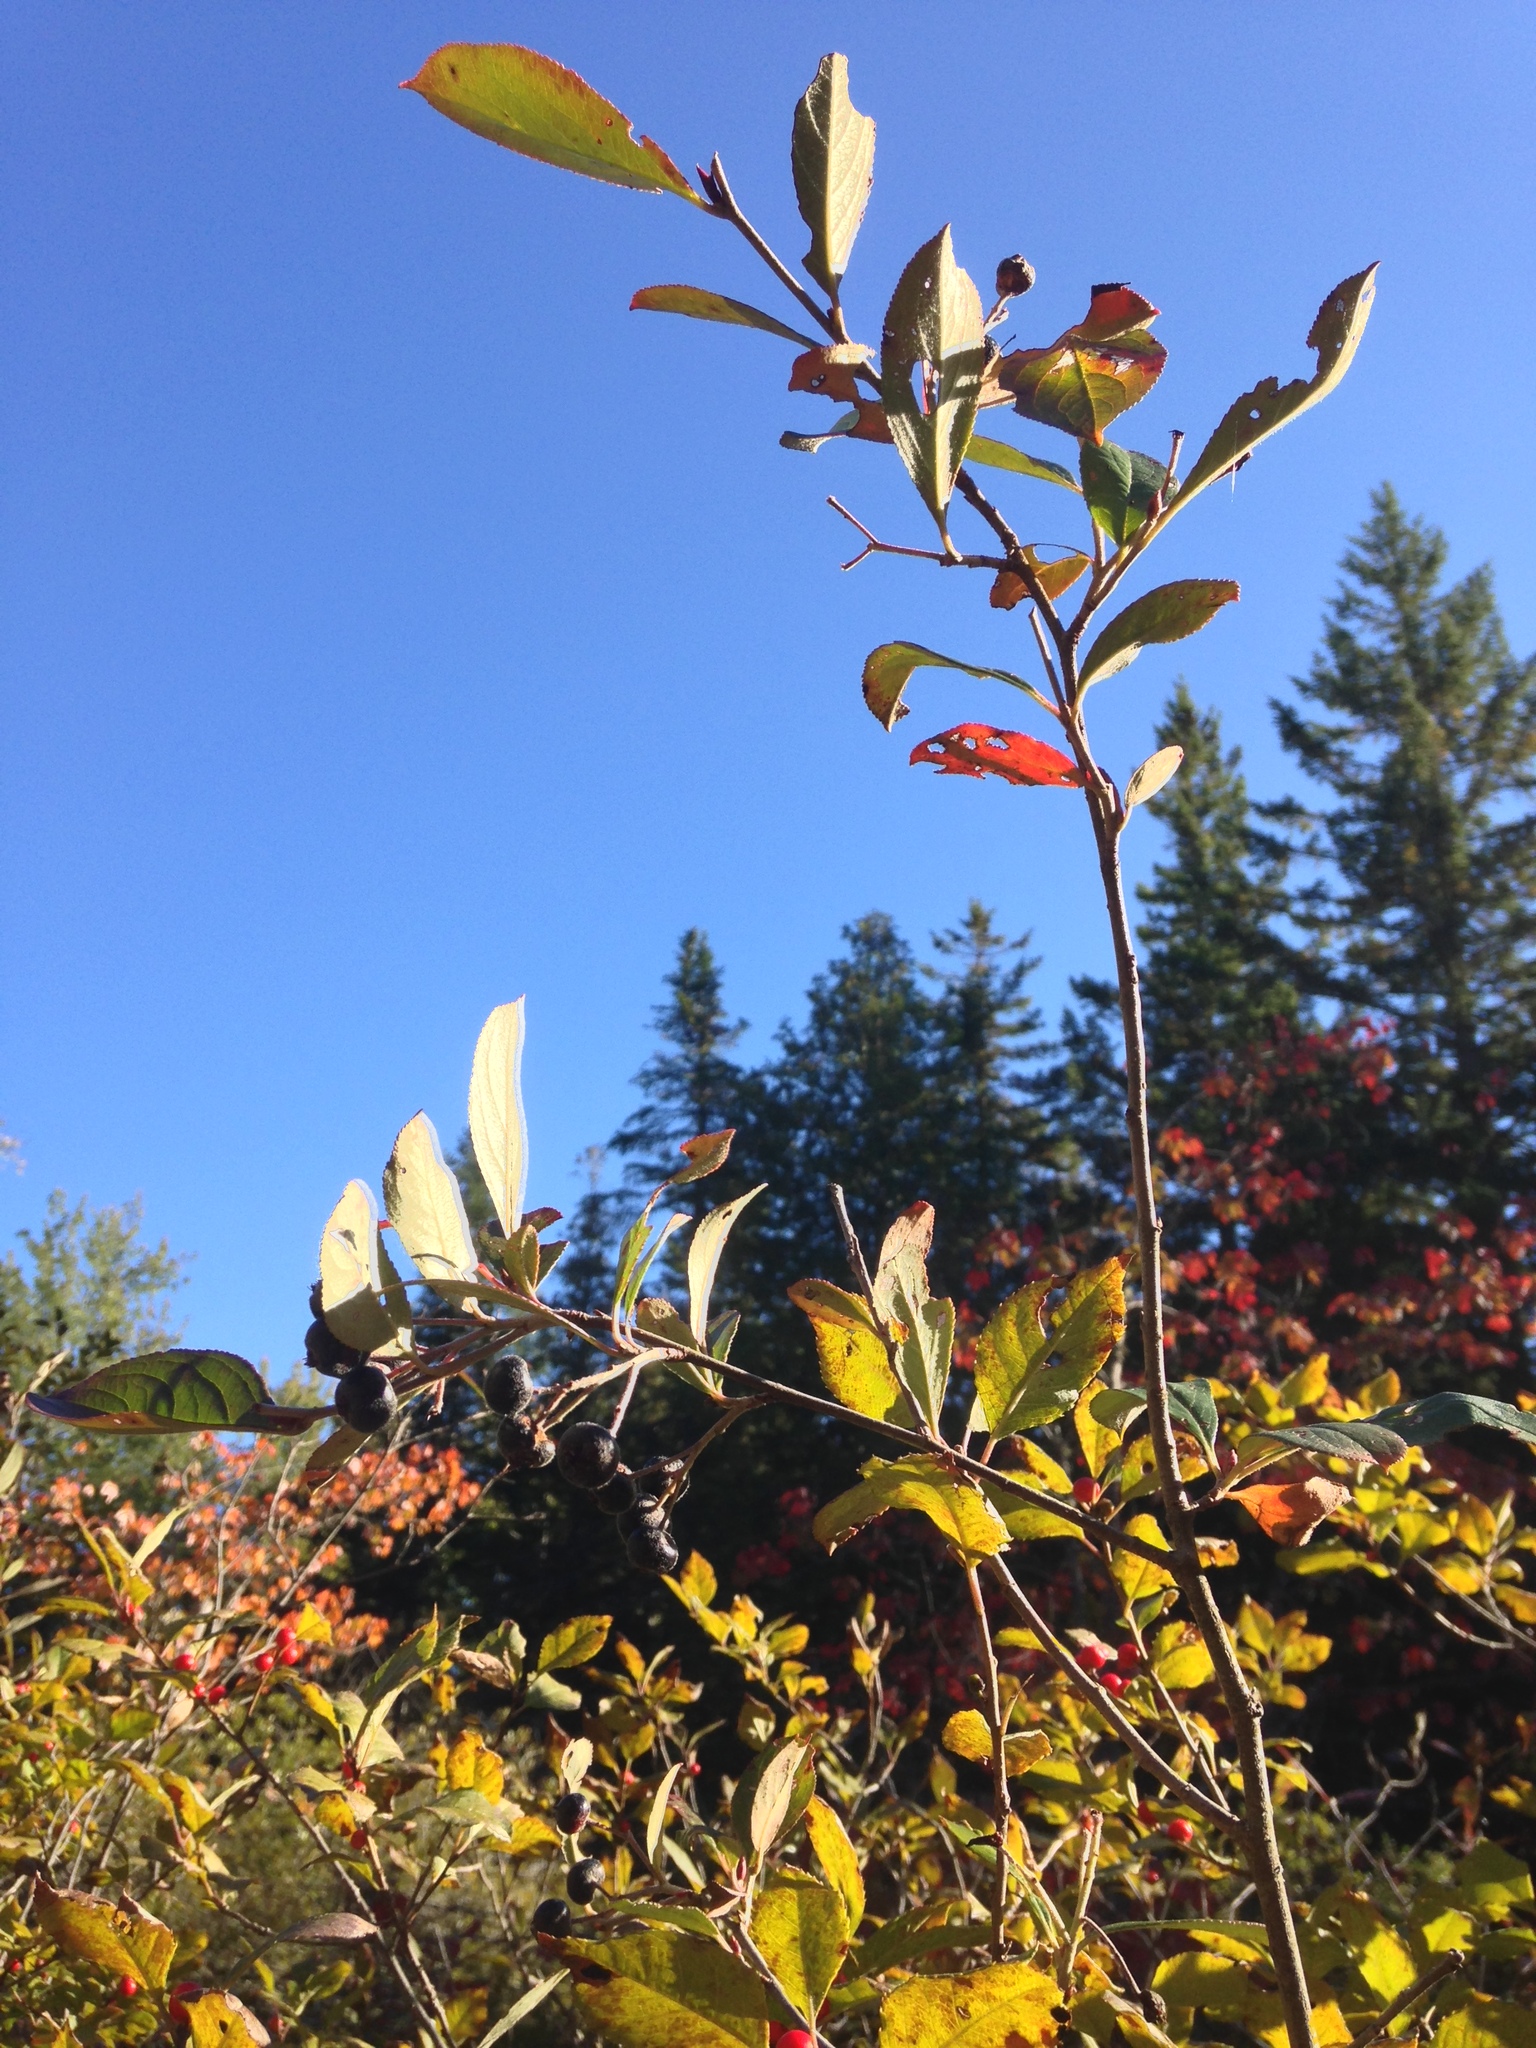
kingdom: Plantae
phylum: Tracheophyta
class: Magnoliopsida
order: Rosales
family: Rosaceae
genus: Aronia
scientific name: Aronia melanocarpa
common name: Black chokeberry
